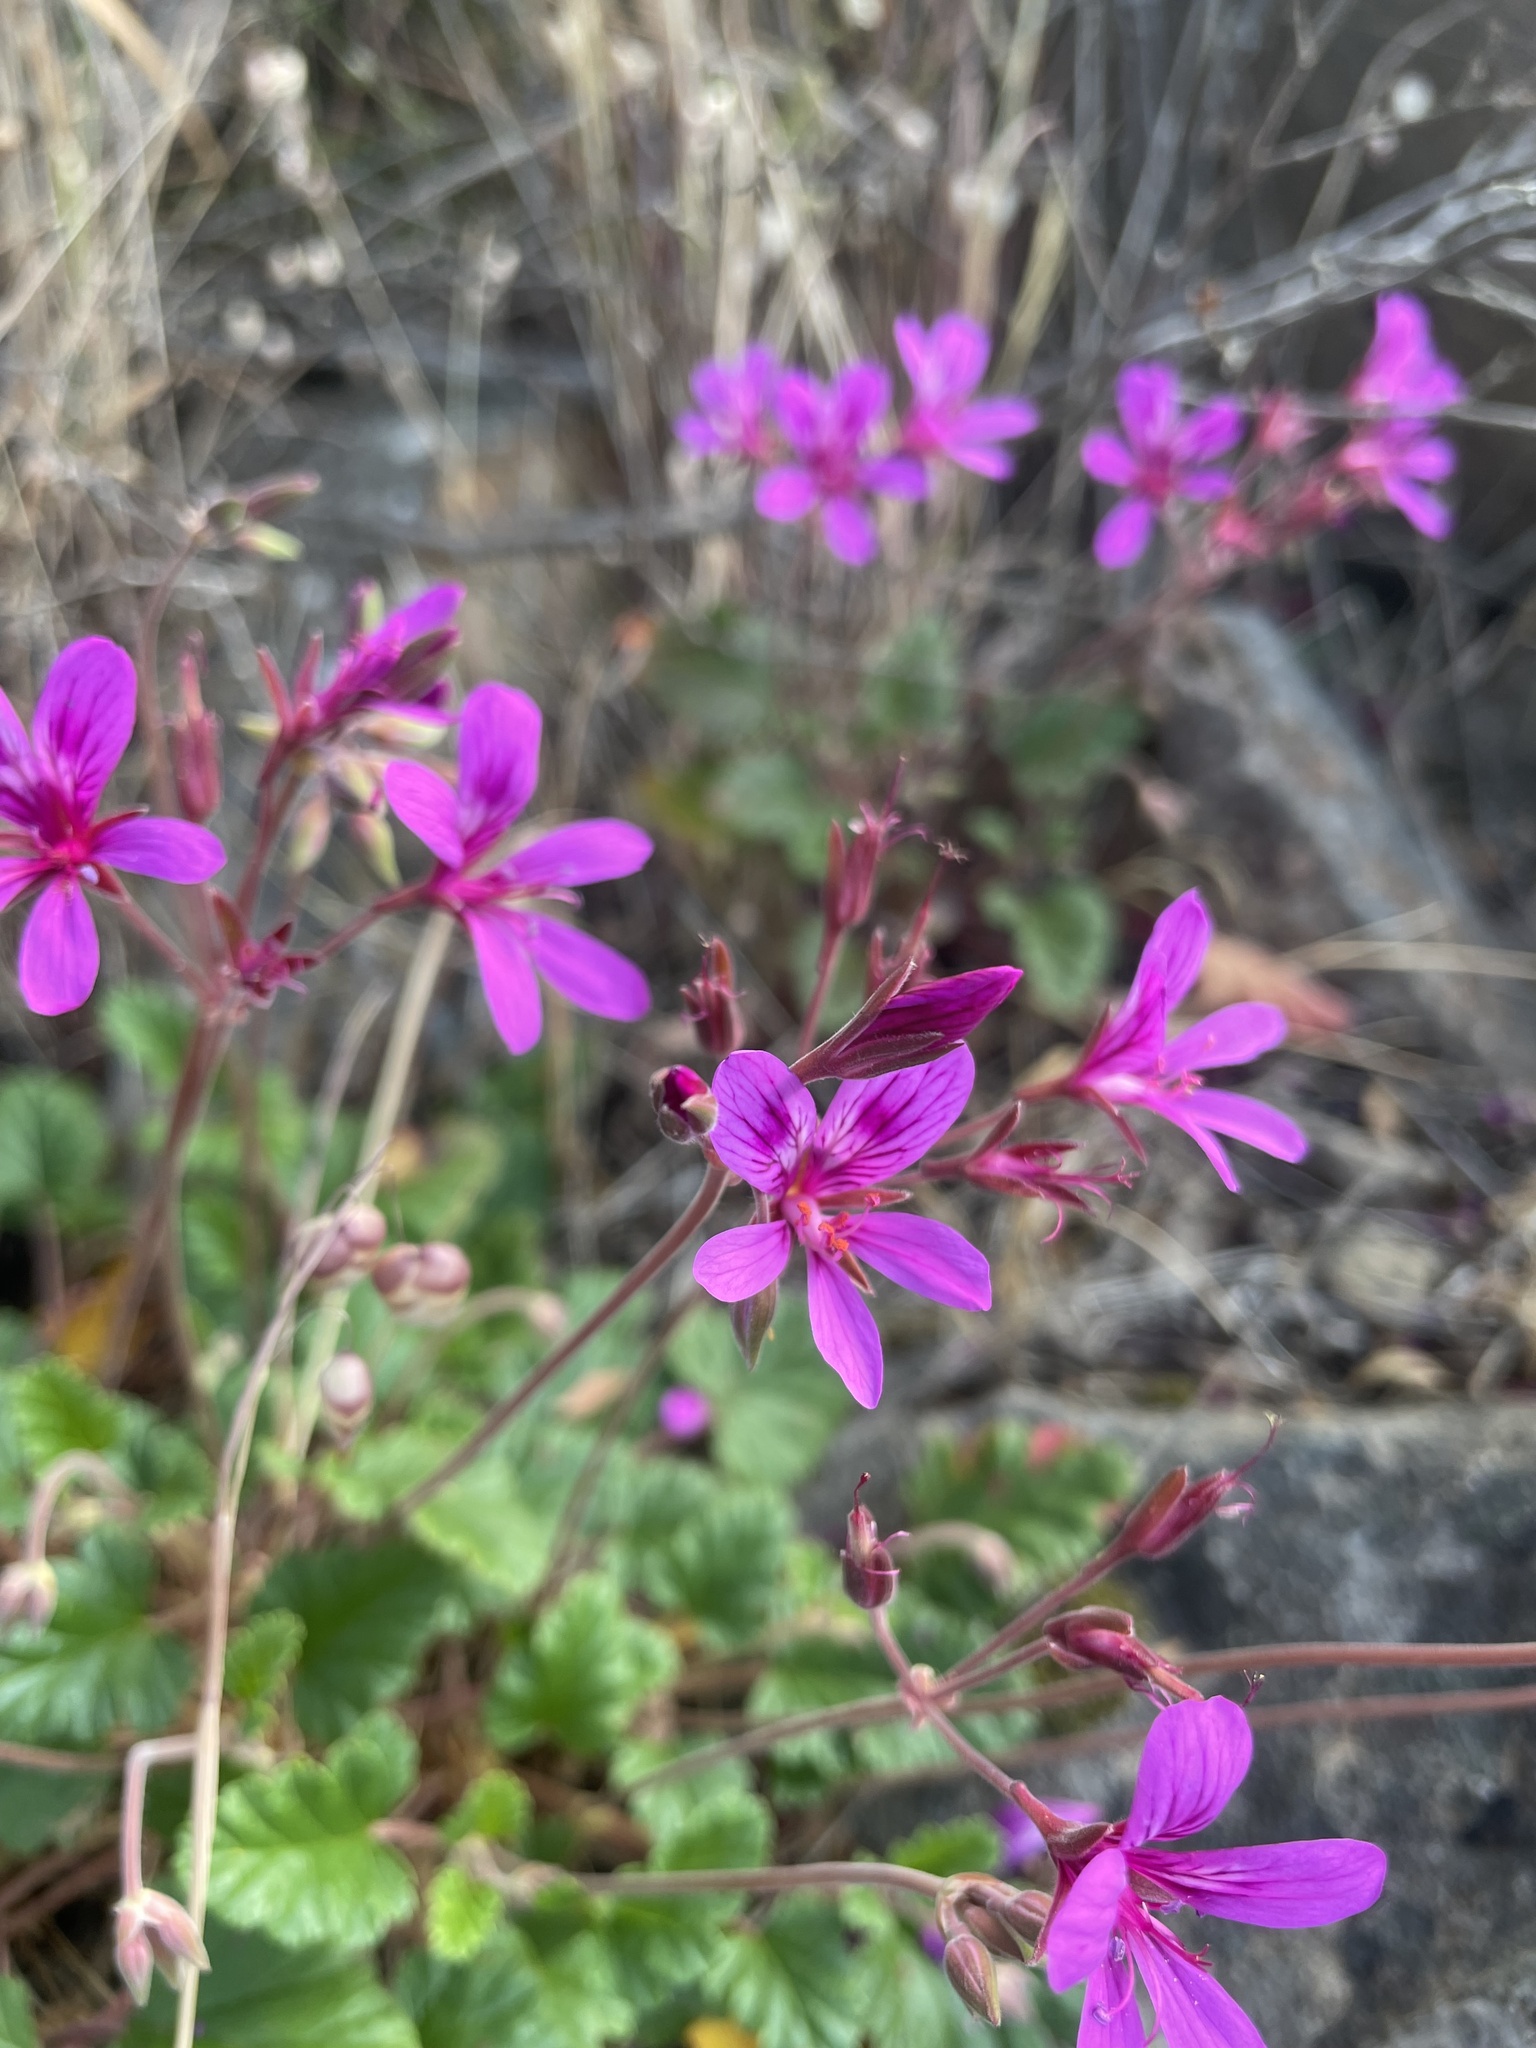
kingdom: Plantae
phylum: Tracheophyta
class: Magnoliopsida
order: Geraniales
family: Geraniaceae
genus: Pelargonium
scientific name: Pelargonium rodneyanum
